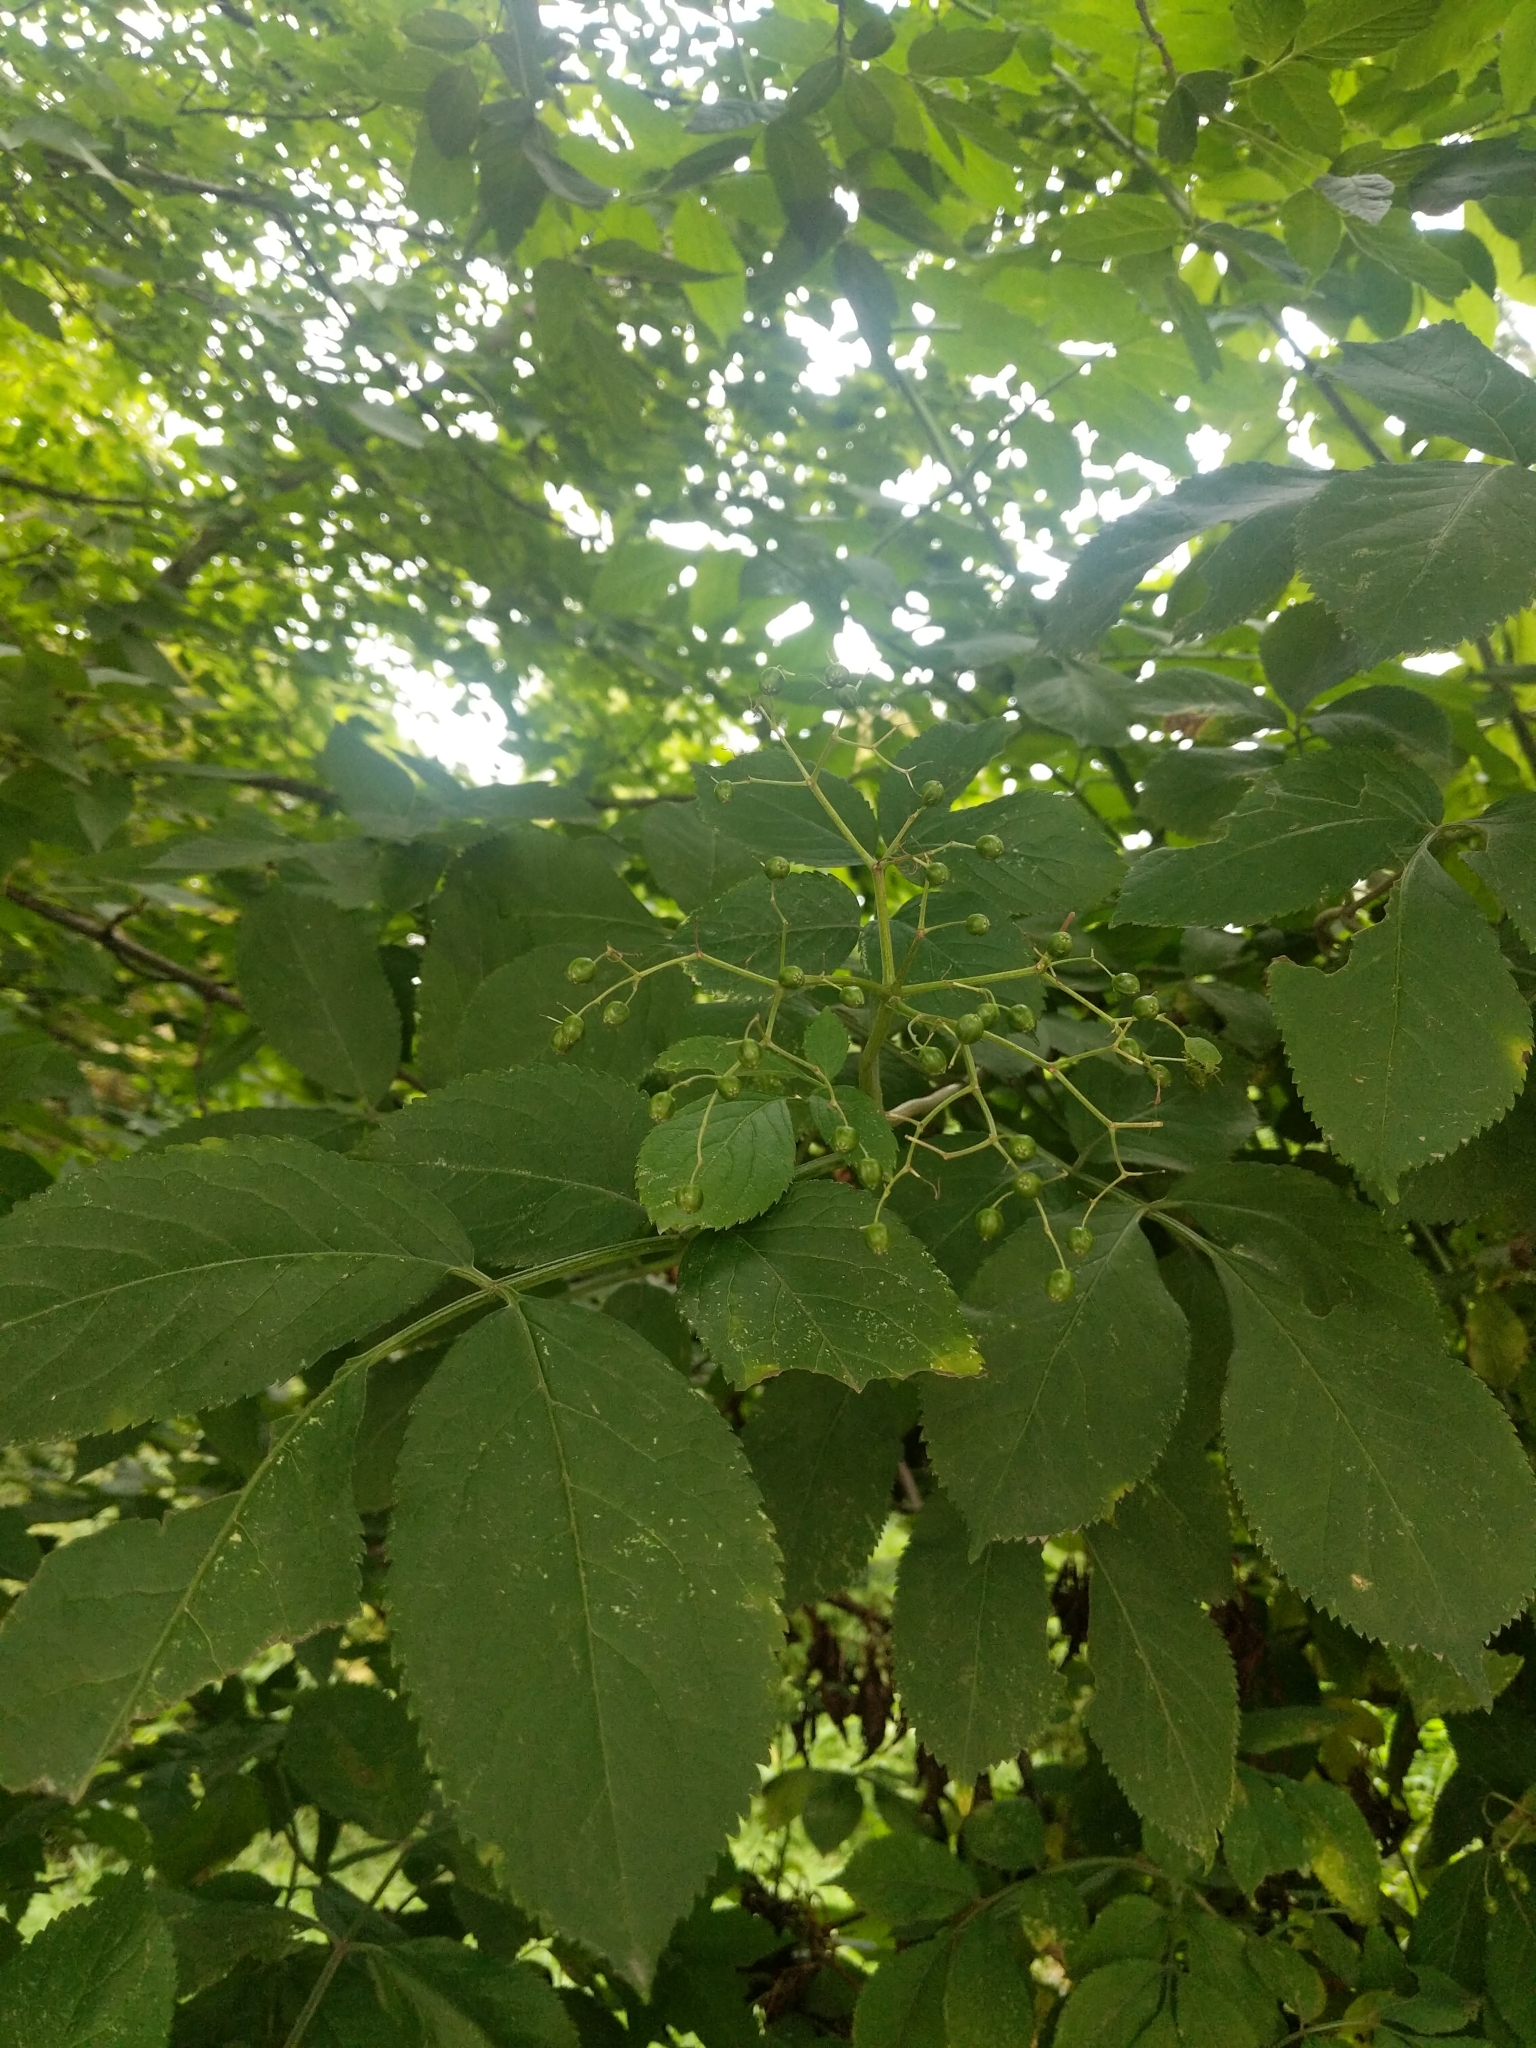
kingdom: Plantae
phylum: Tracheophyta
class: Magnoliopsida
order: Dipsacales
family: Viburnaceae
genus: Sambucus
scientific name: Sambucus nigra
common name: Elder
